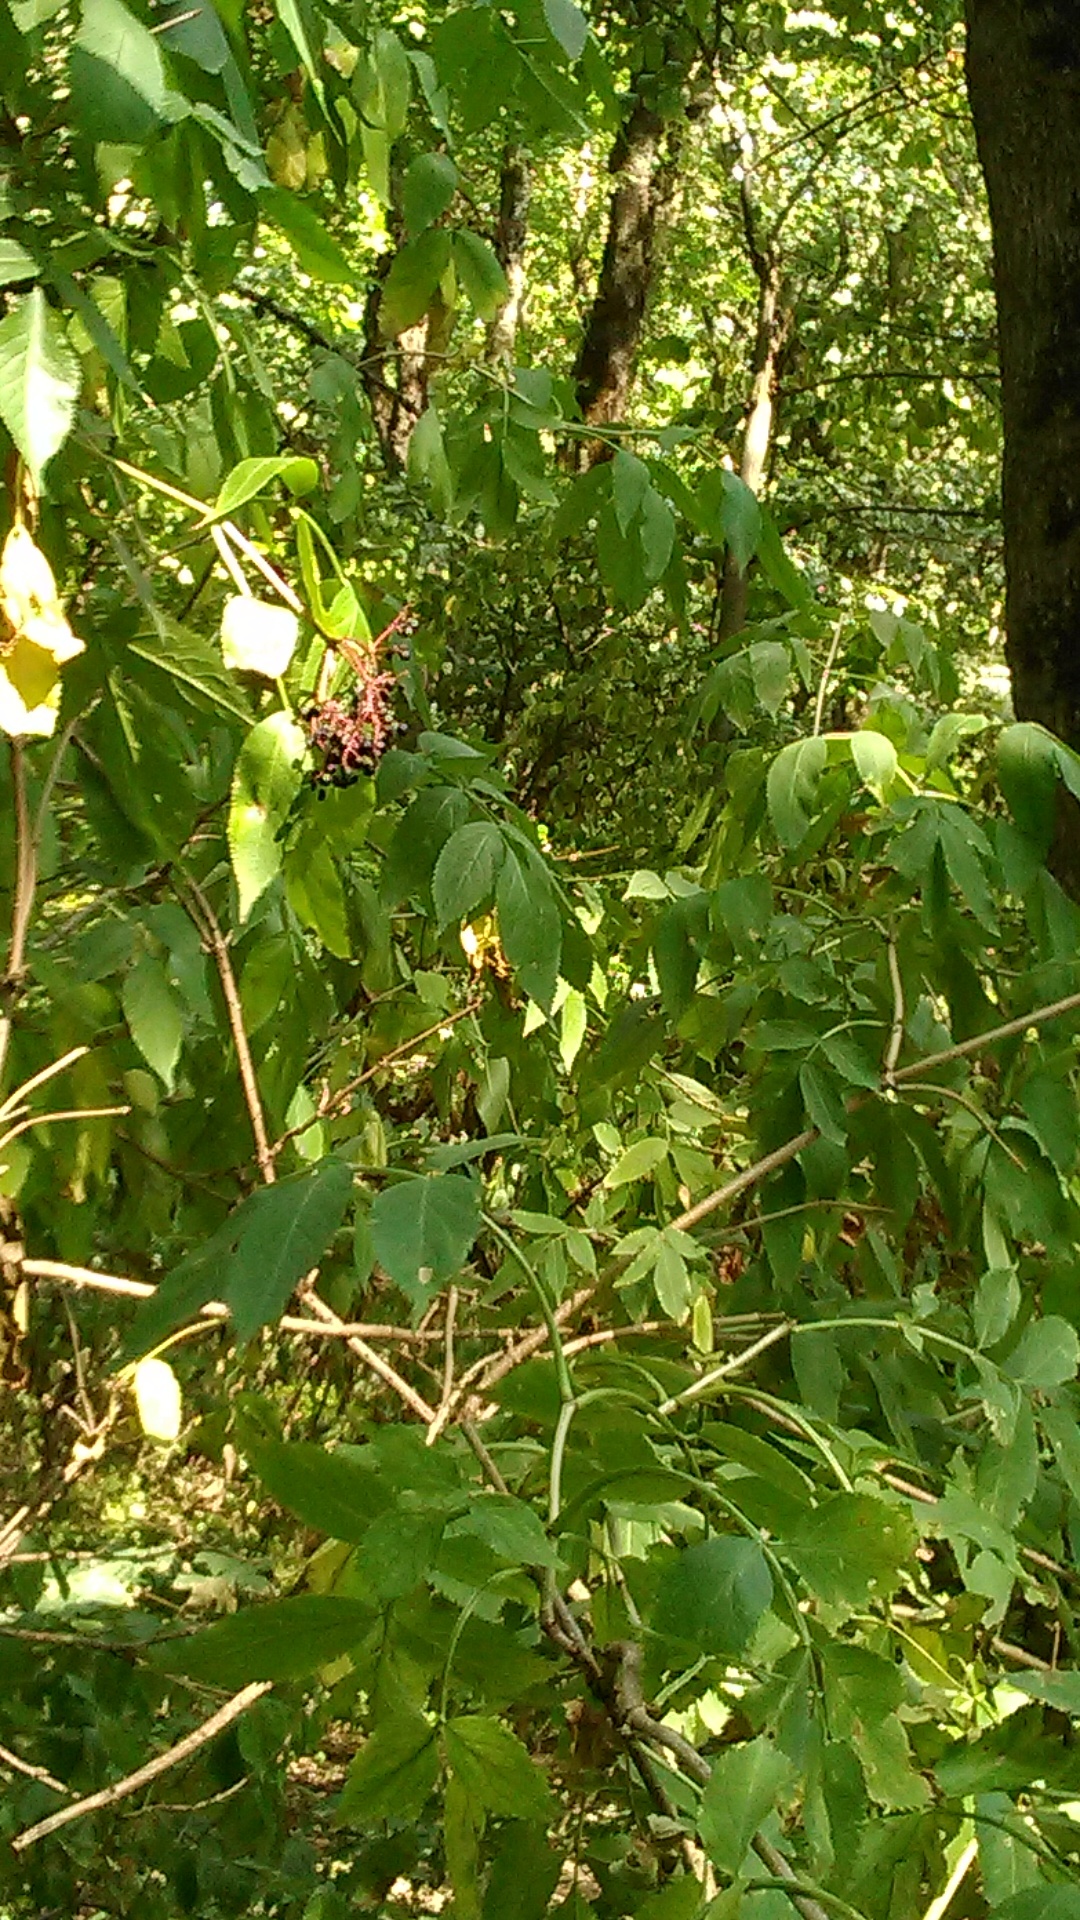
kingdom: Plantae
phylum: Tracheophyta
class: Magnoliopsida
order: Dipsacales
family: Viburnaceae
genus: Sambucus
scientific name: Sambucus nigra
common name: Elder
